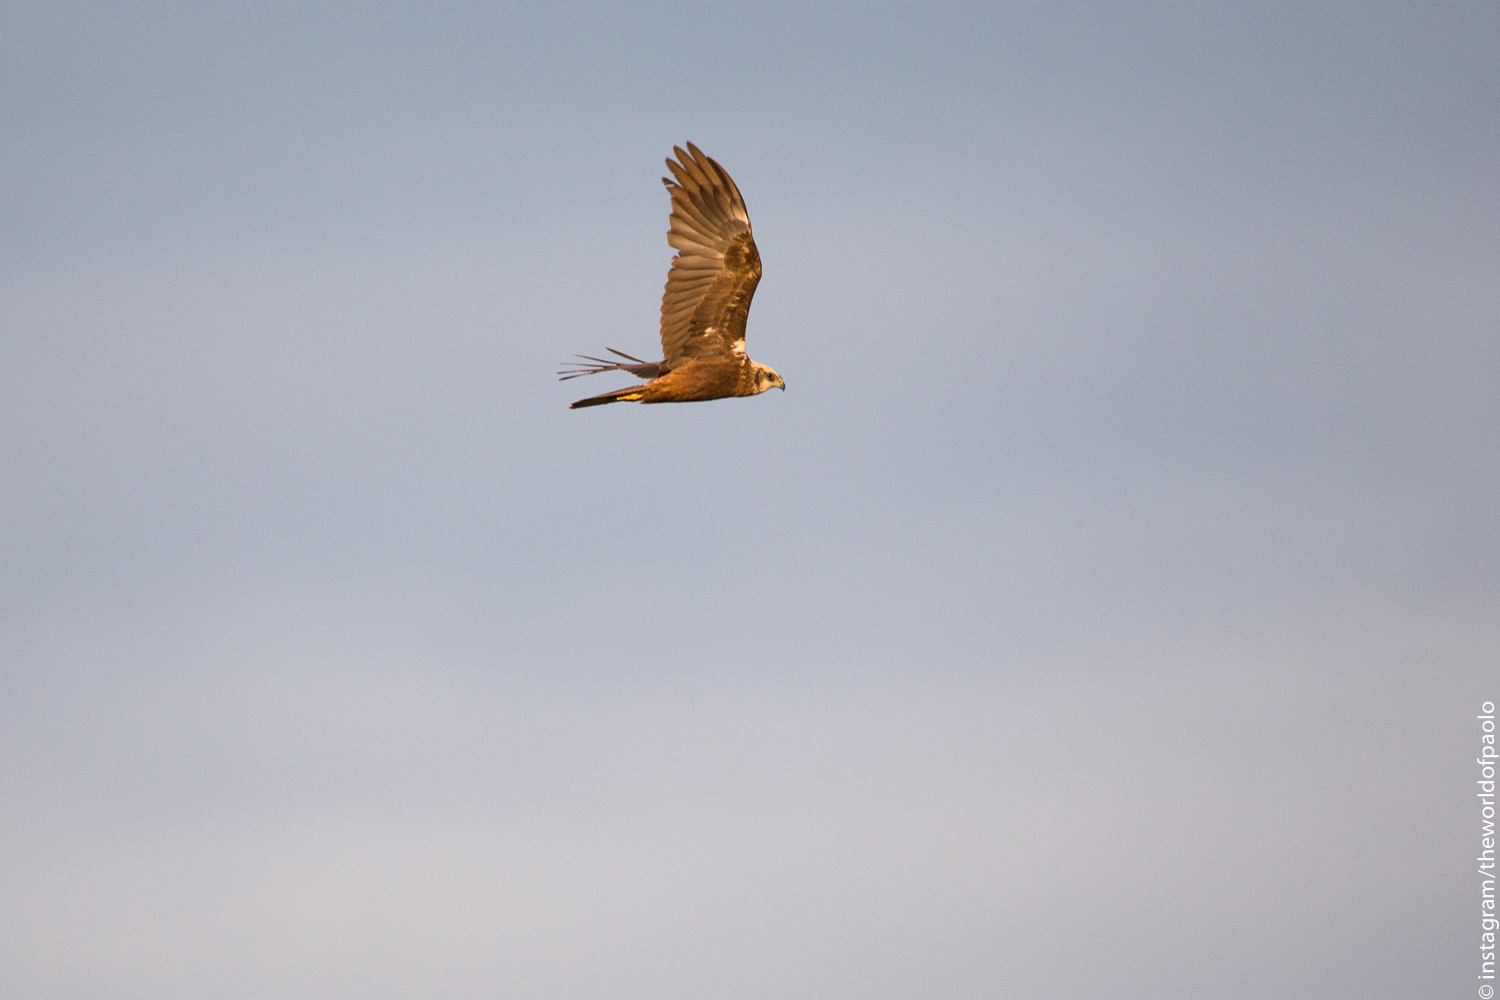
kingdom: Animalia
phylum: Chordata
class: Aves
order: Accipitriformes
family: Accipitridae
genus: Circus
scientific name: Circus aeruginosus
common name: Western marsh harrier
